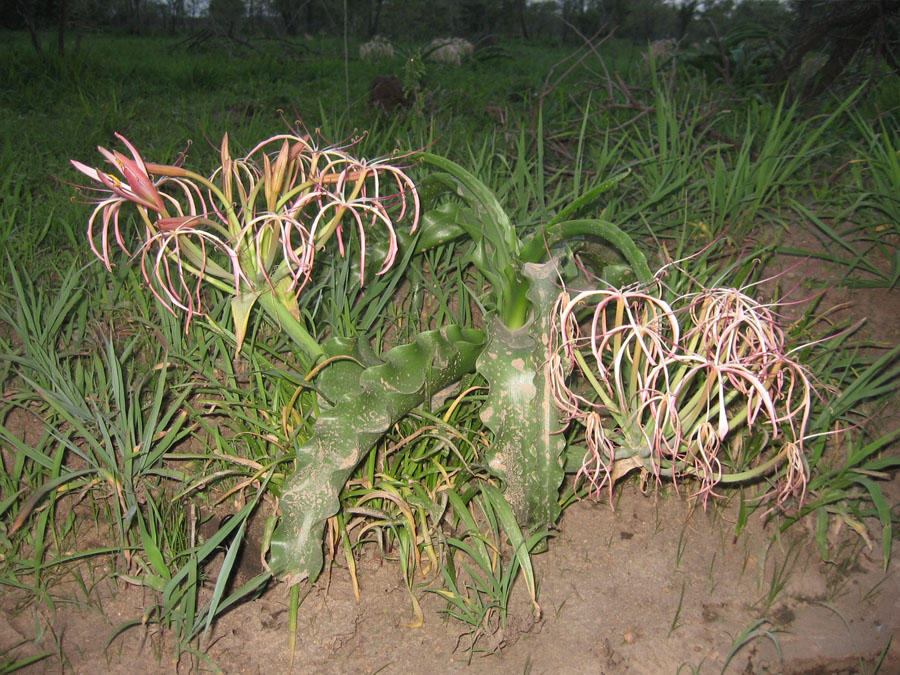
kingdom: Plantae
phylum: Tracheophyta
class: Liliopsida
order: Asparagales
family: Amaryllidaceae
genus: Crinum
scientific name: Crinum buphanoides
